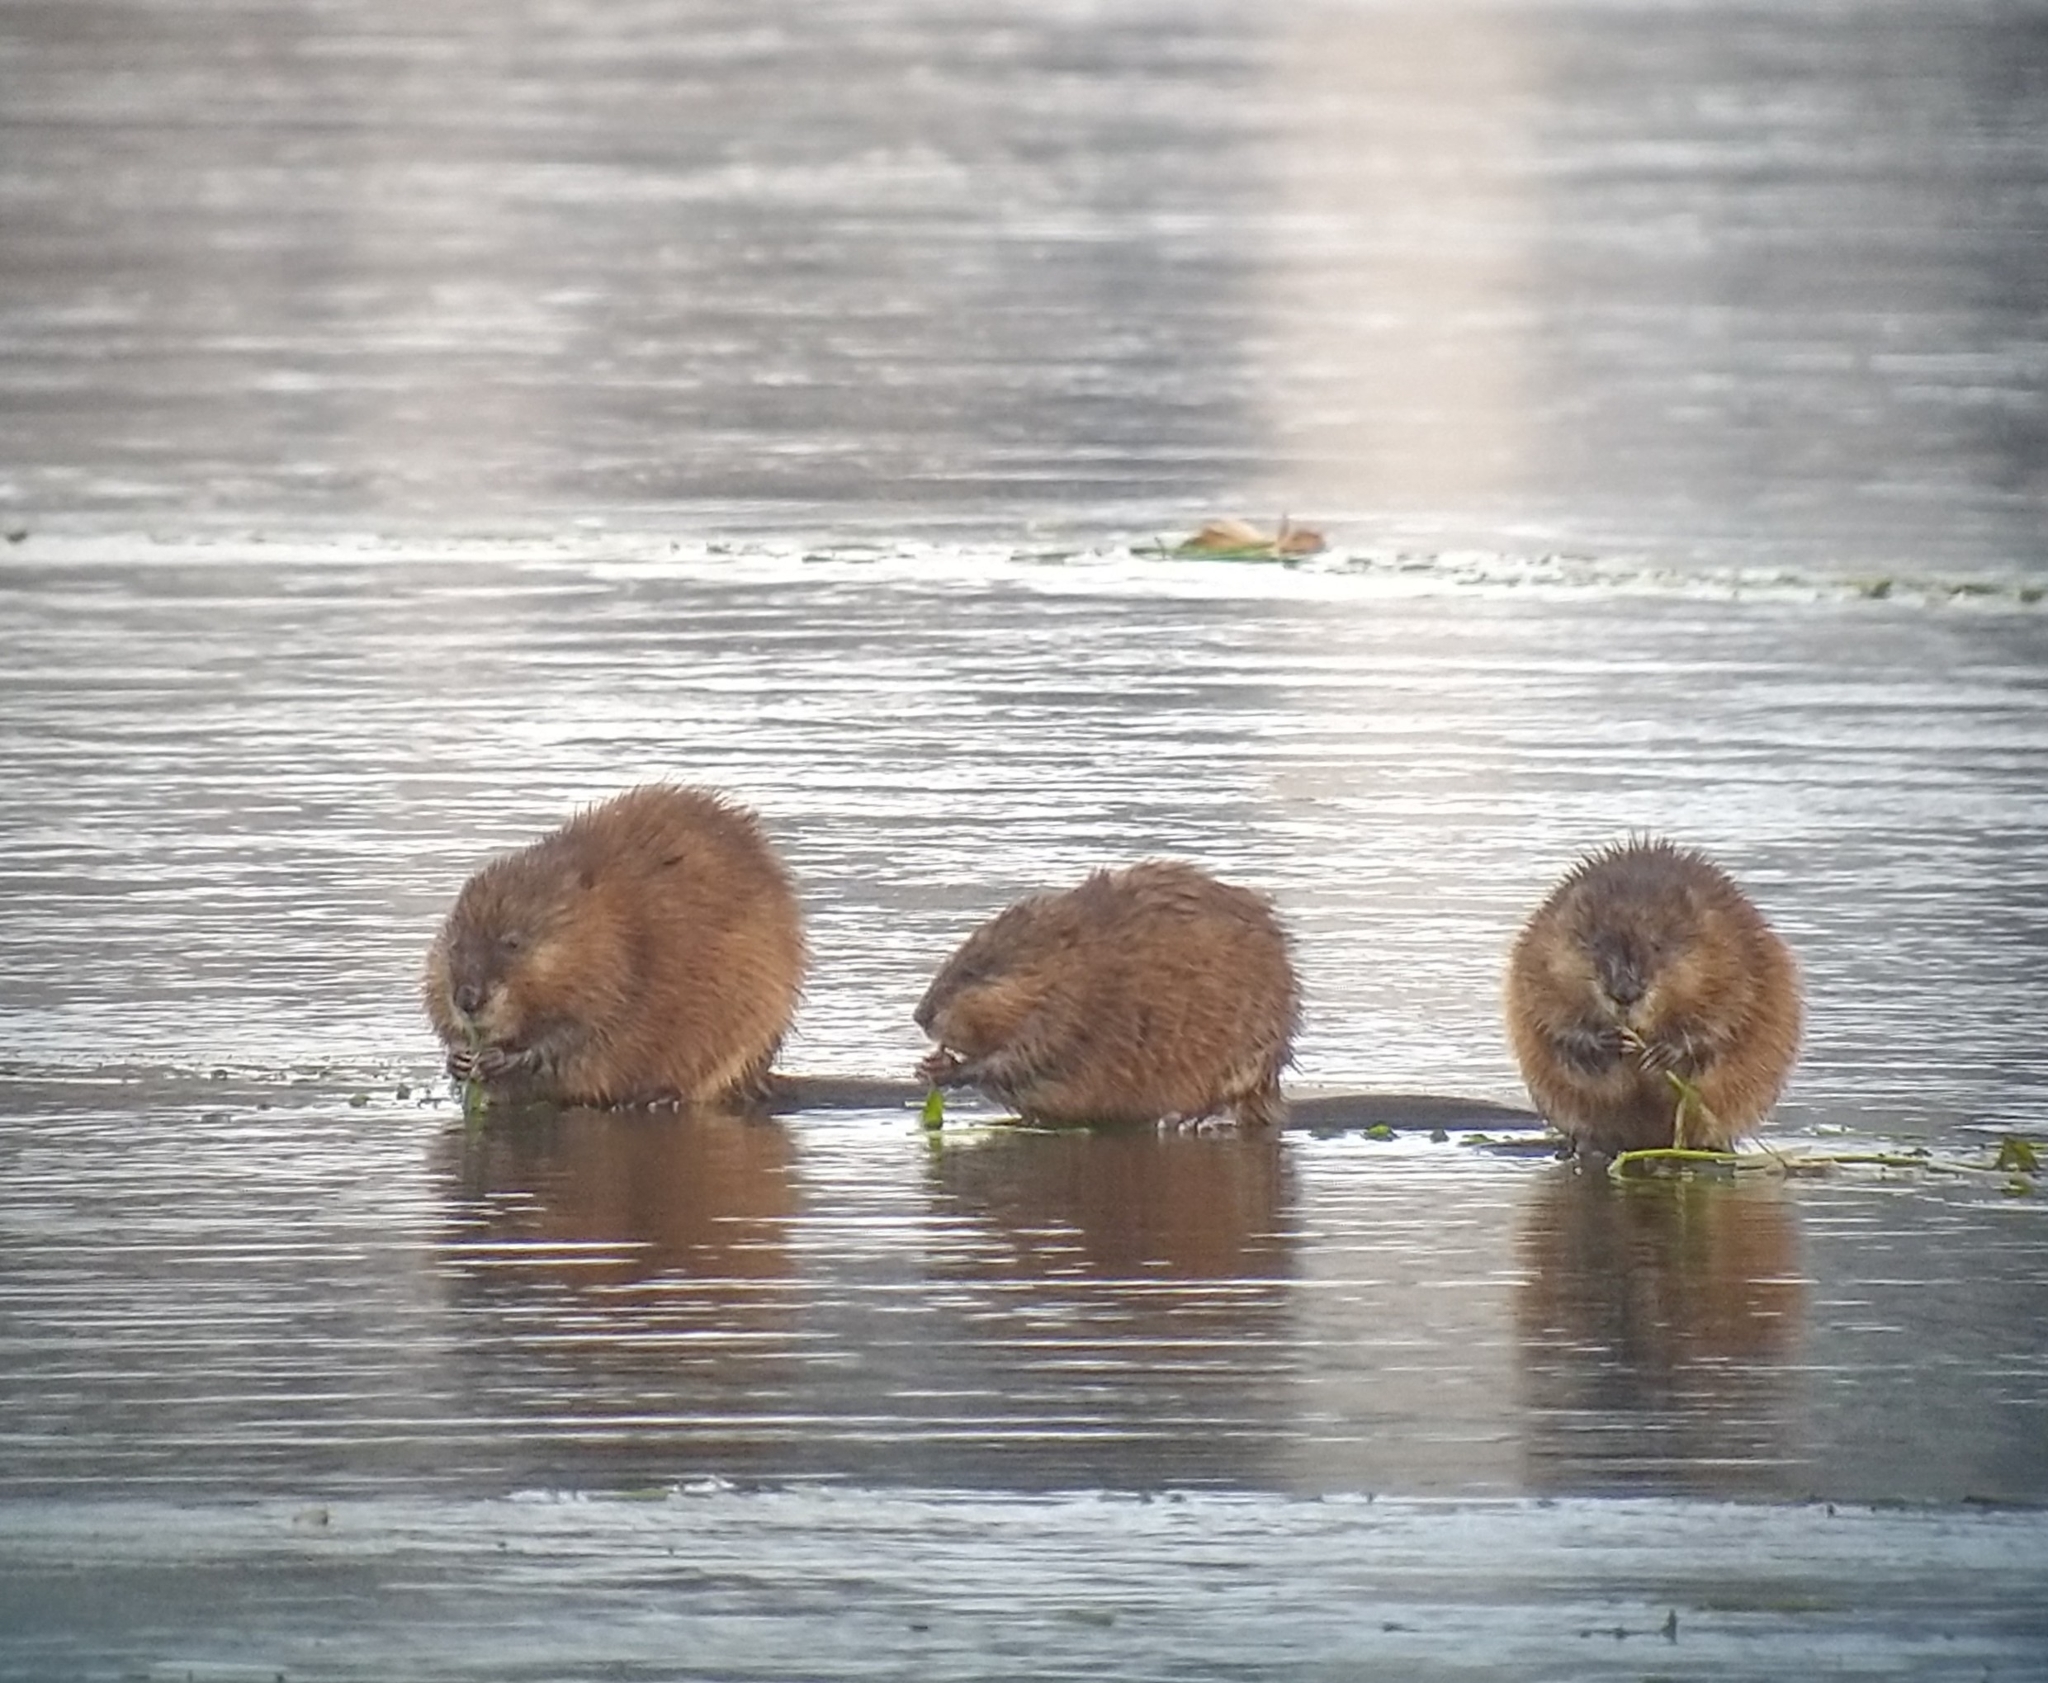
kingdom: Animalia
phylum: Chordata
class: Mammalia
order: Rodentia
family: Cricetidae
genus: Ondatra
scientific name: Ondatra zibethicus
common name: Muskrat
